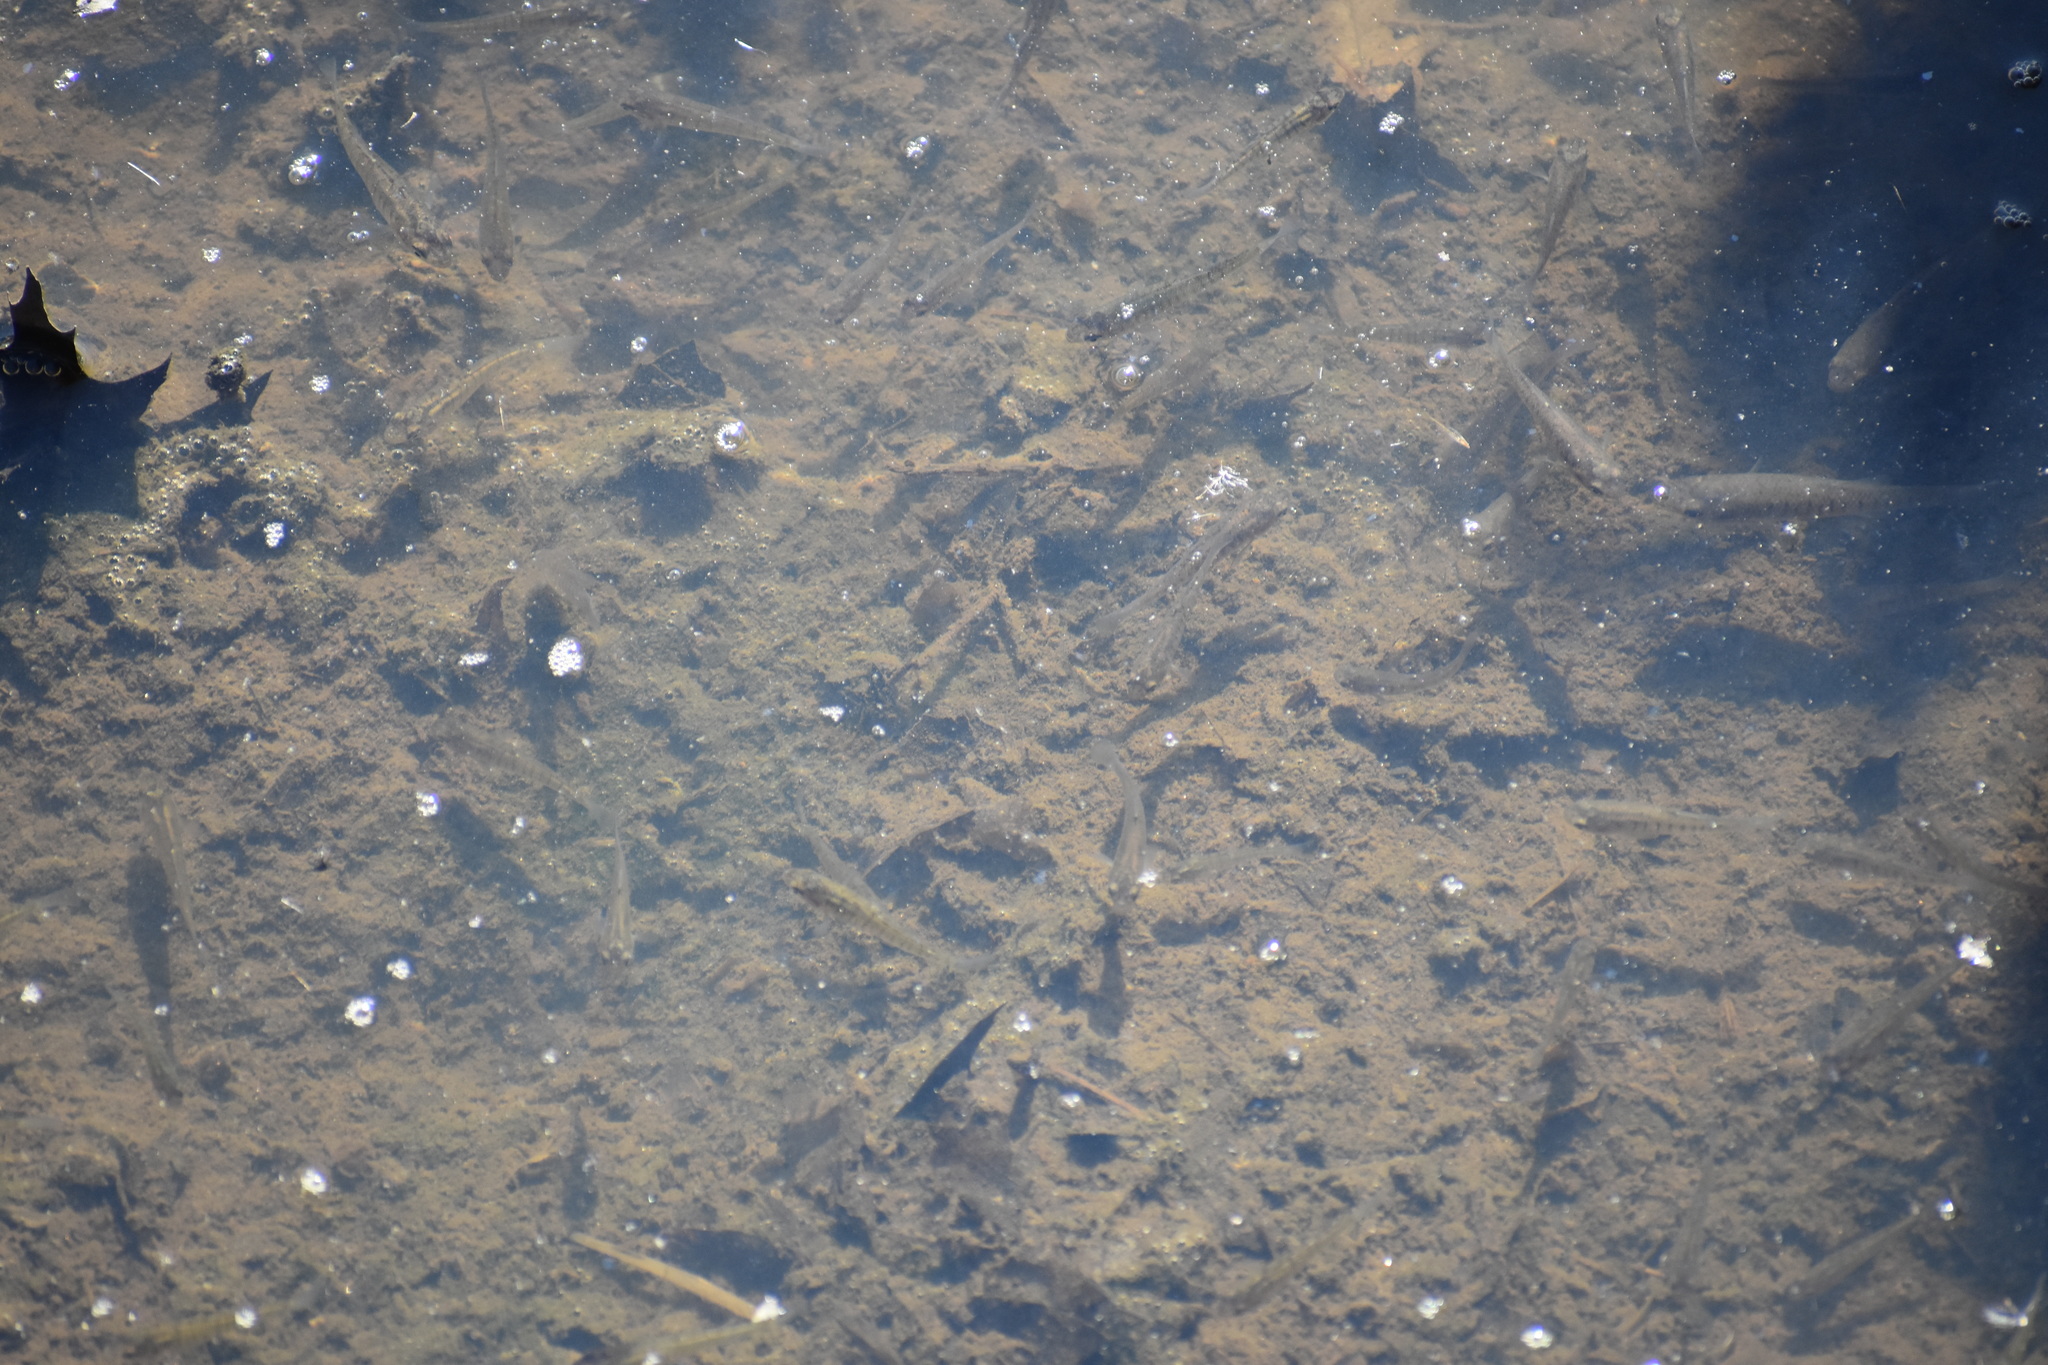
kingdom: Animalia
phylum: Chordata
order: Cyprinodontiformes
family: Fundulidae
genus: Fundulus
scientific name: Fundulus heteroclitus
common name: Mummichog
